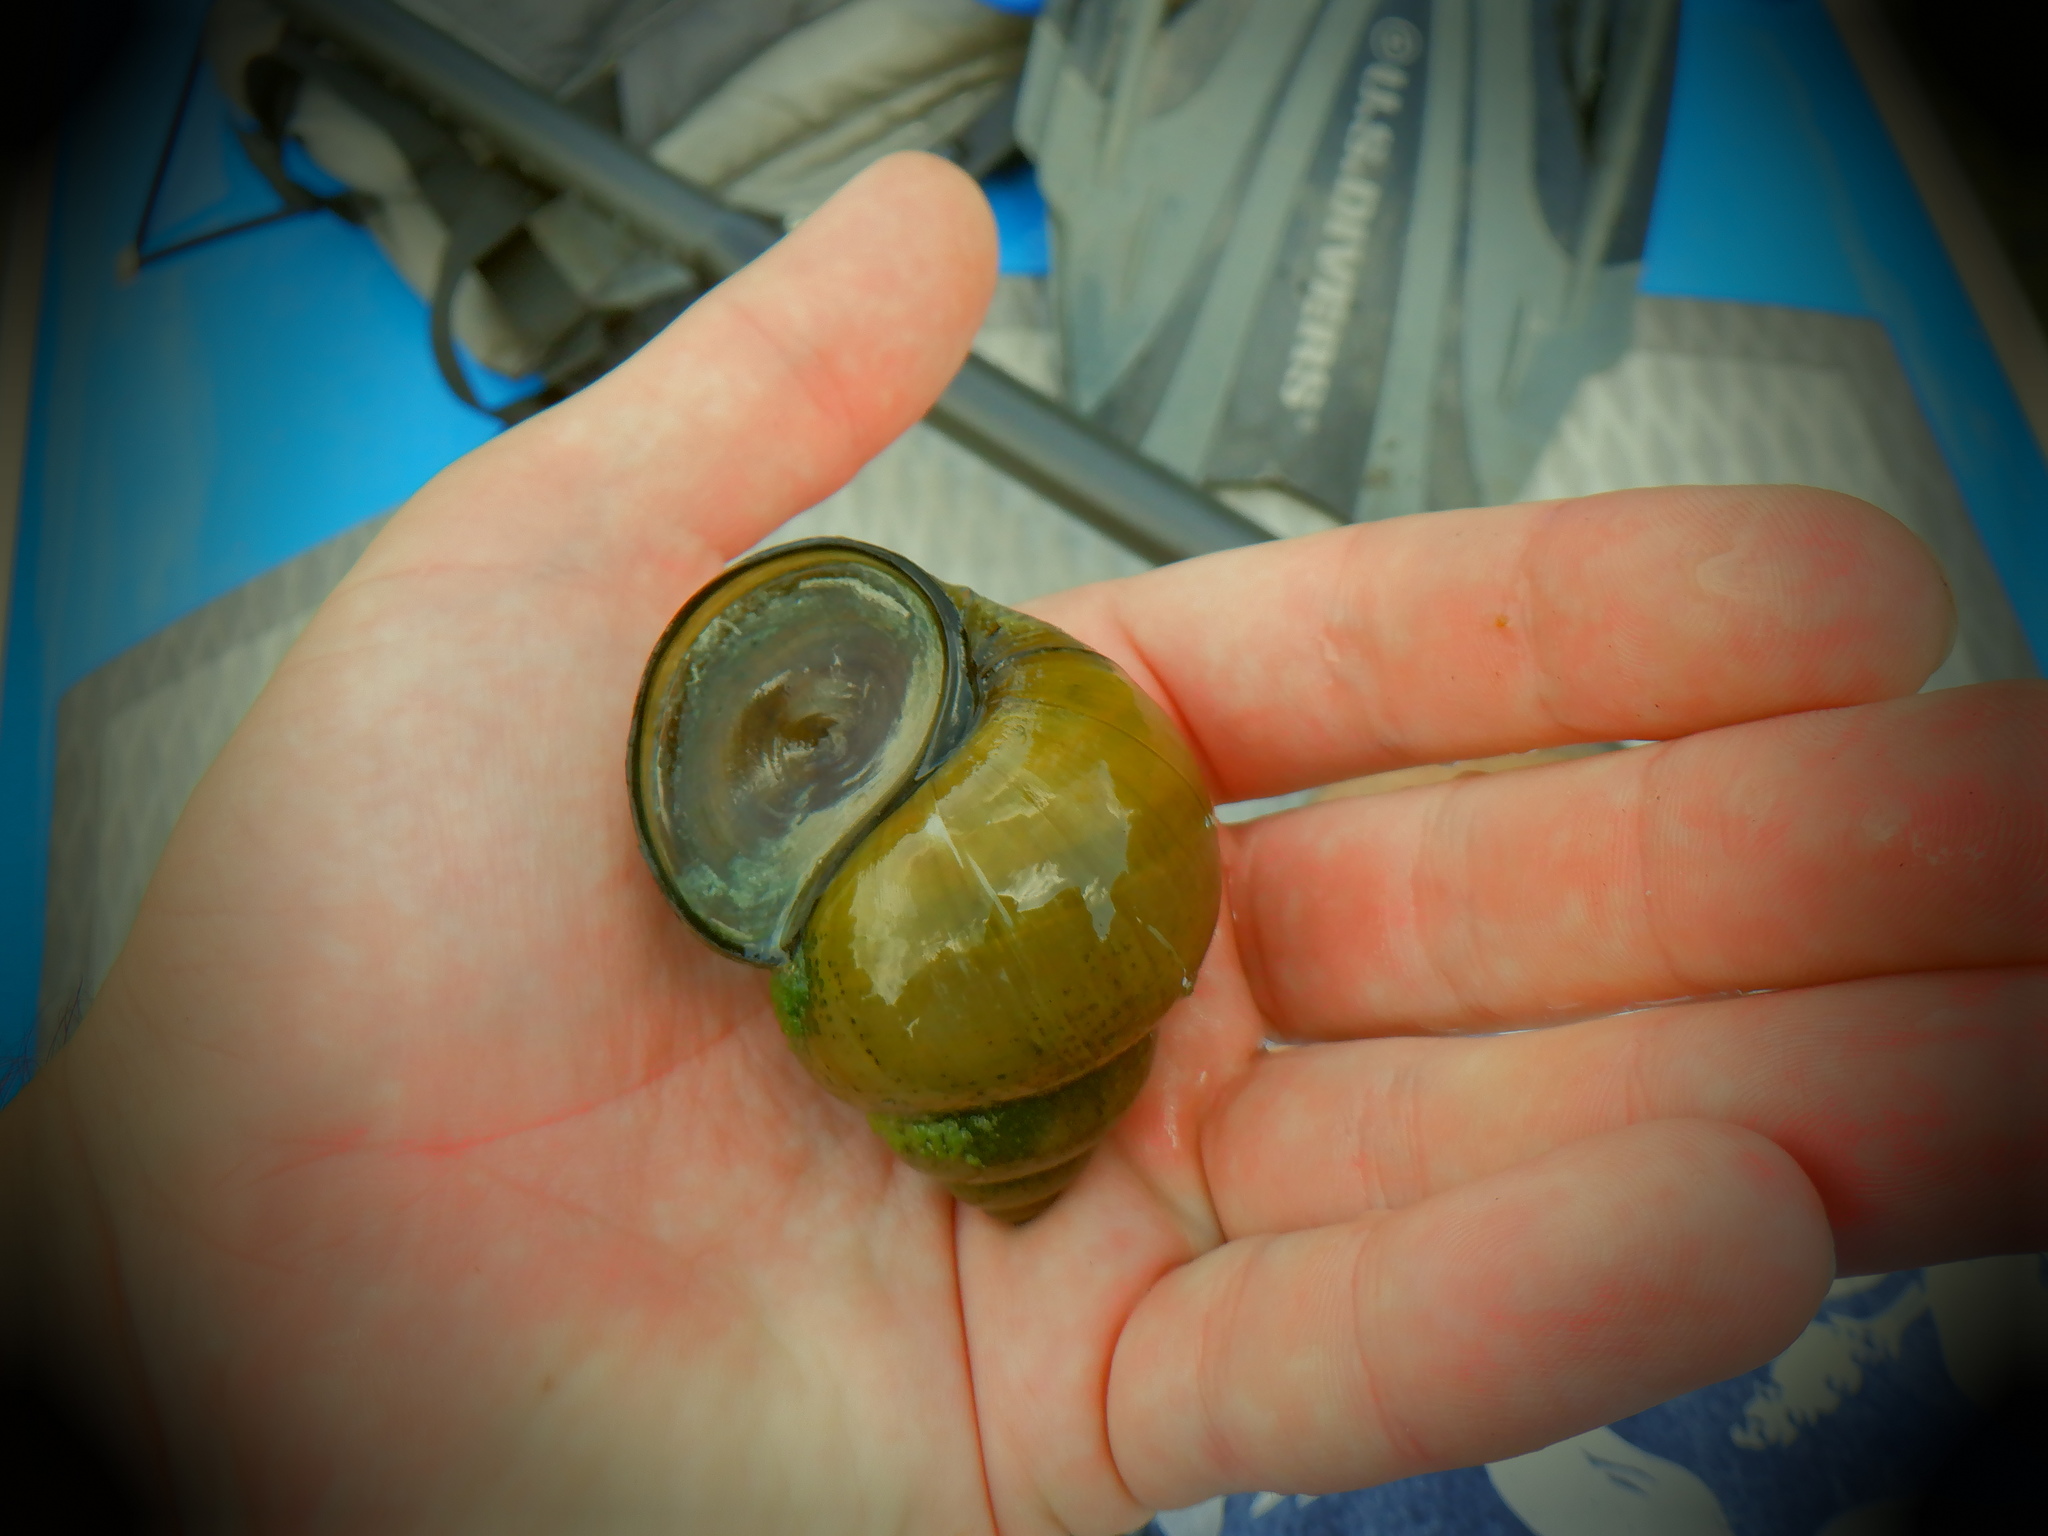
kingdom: Animalia
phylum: Mollusca
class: Gastropoda
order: Architaenioglossa
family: Viviparidae
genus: Cipangopaludina
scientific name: Cipangopaludina chinensis
